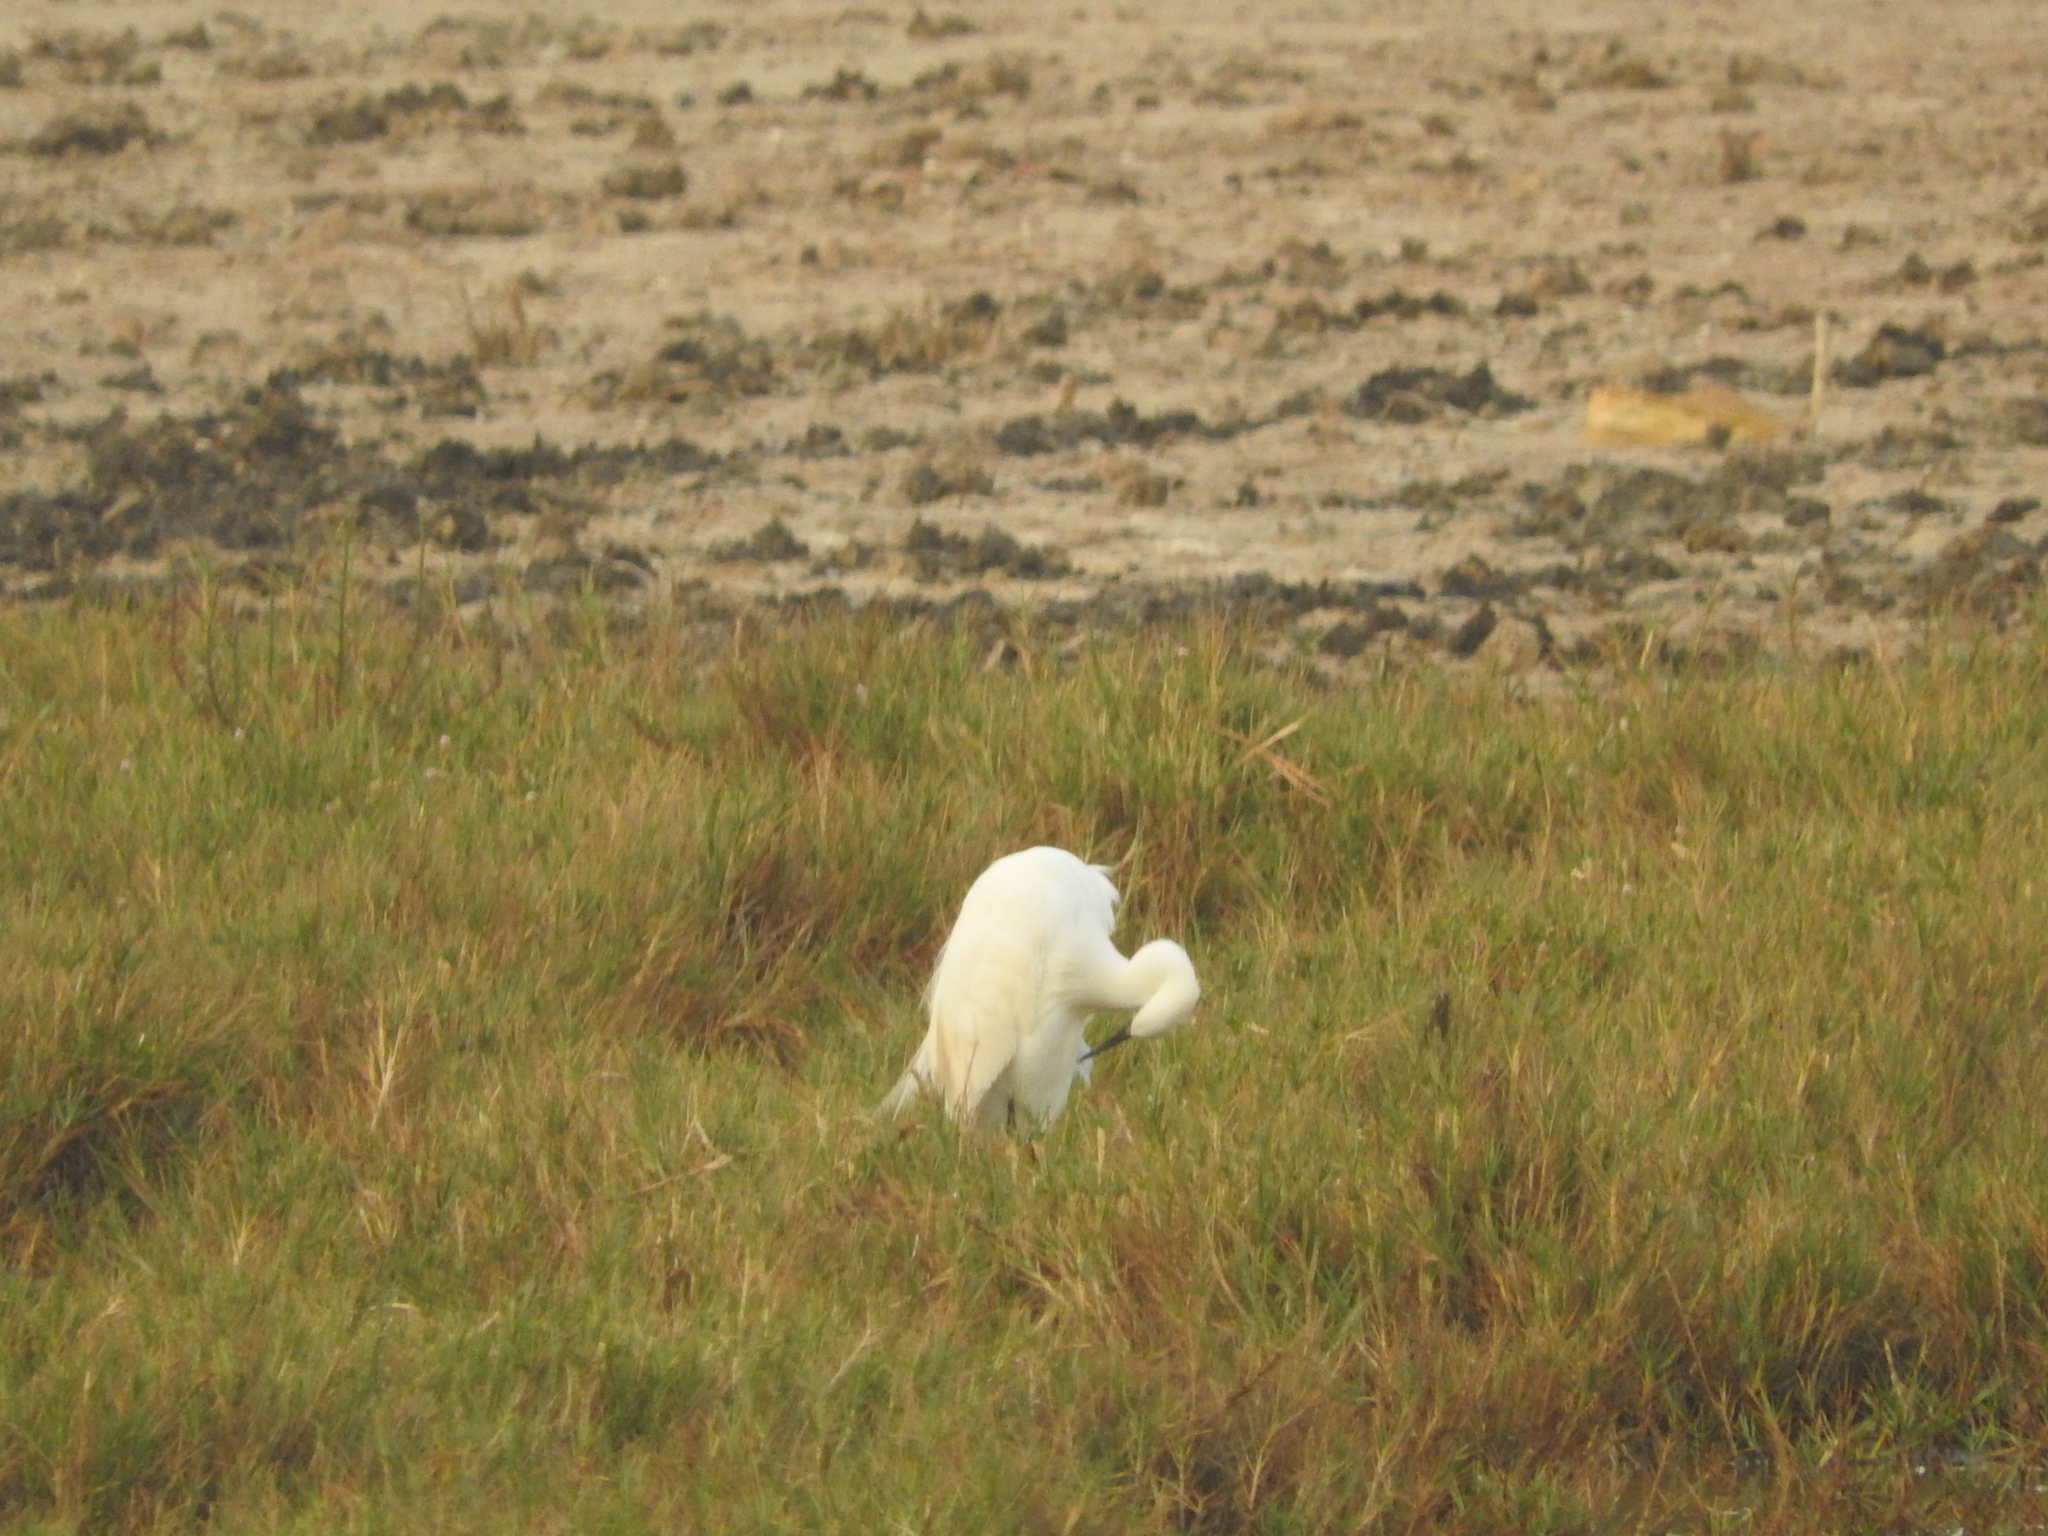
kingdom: Animalia
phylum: Chordata
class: Aves
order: Pelecaniformes
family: Ardeidae
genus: Egretta
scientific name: Egretta garzetta
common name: Little egret
